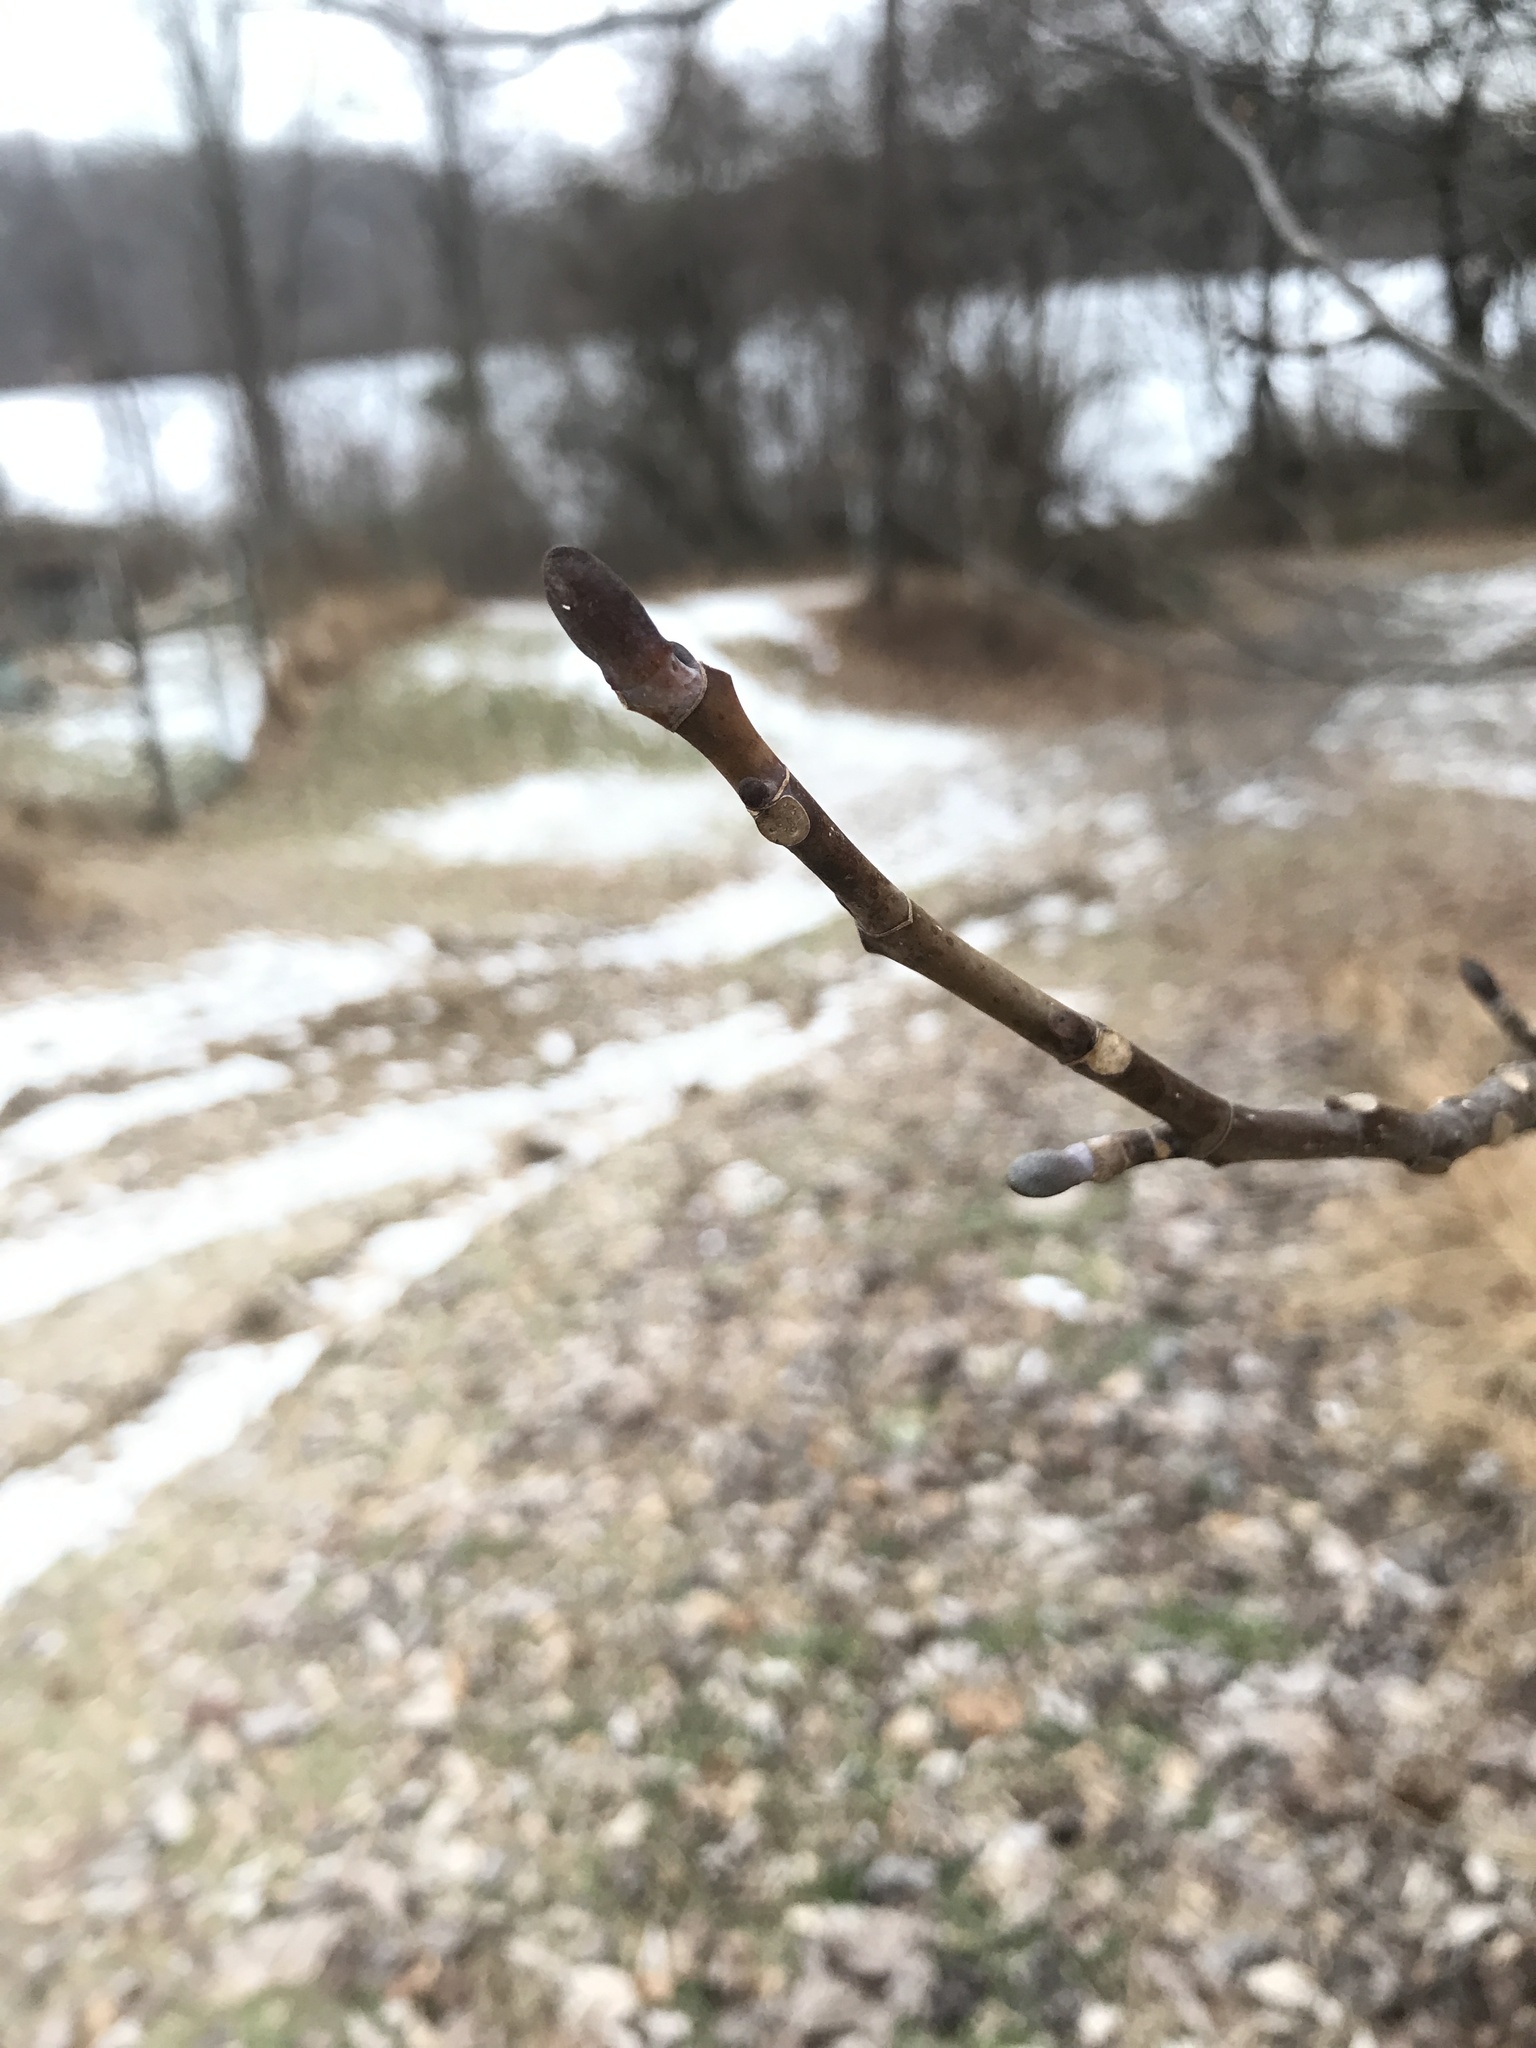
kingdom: Plantae
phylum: Tracheophyta
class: Magnoliopsida
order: Magnoliales
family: Magnoliaceae
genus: Liriodendron
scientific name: Liriodendron tulipifera
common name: Tulip tree
